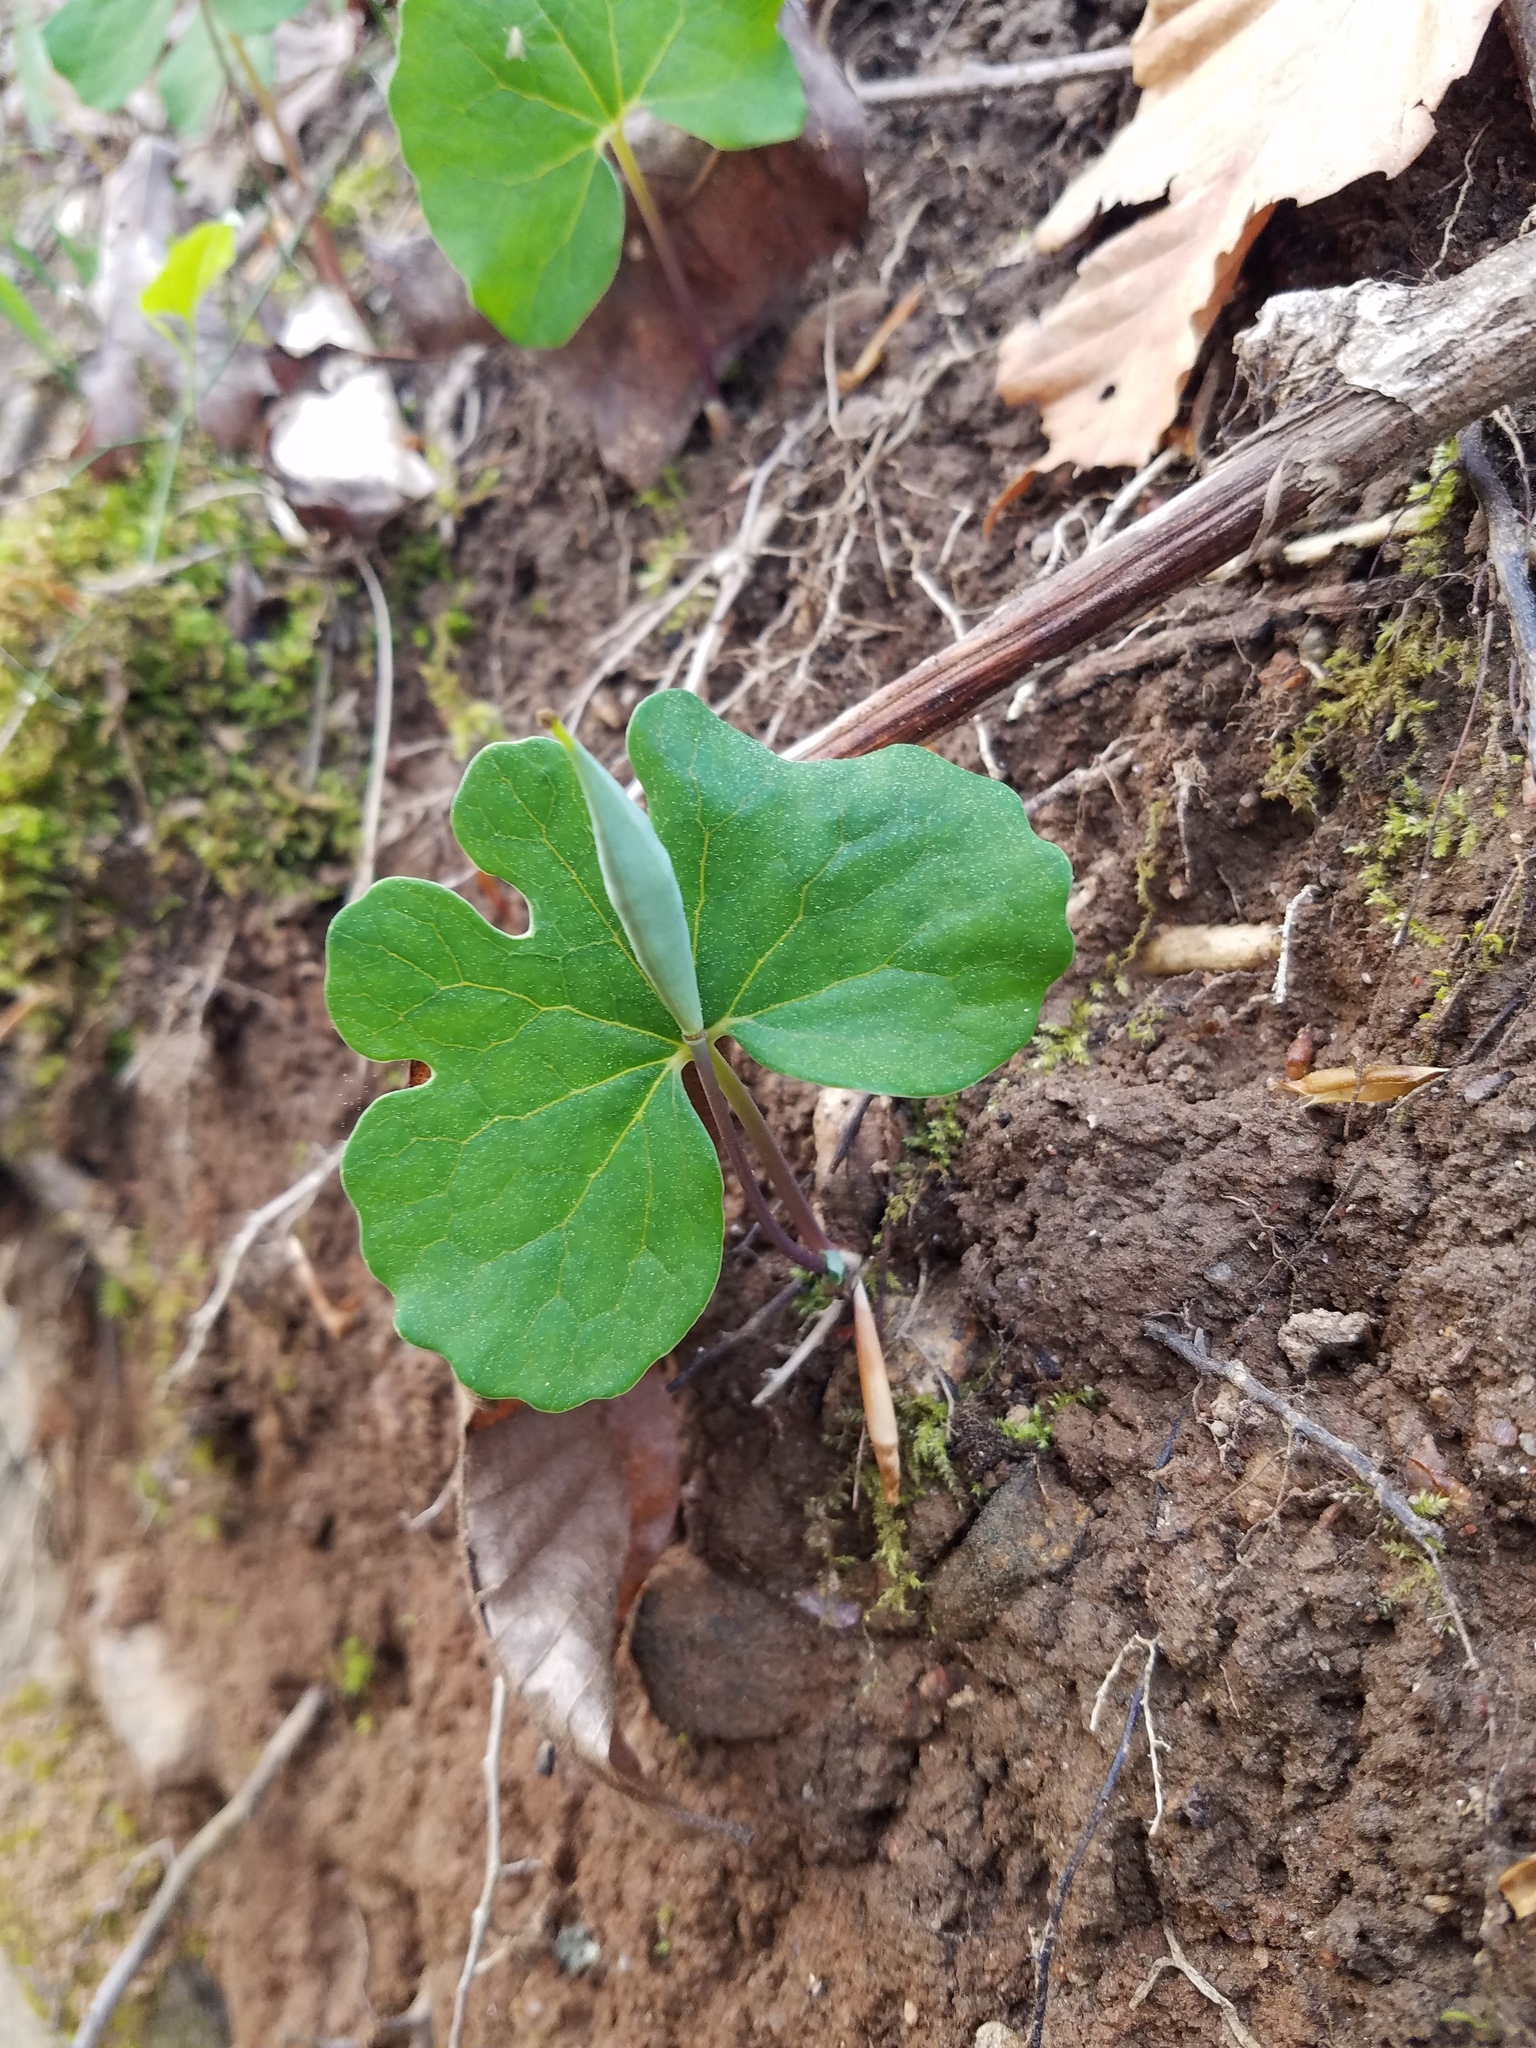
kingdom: Plantae
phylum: Tracheophyta
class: Magnoliopsida
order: Ranunculales
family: Papaveraceae
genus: Sanguinaria
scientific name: Sanguinaria canadensis
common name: Bloodroot
